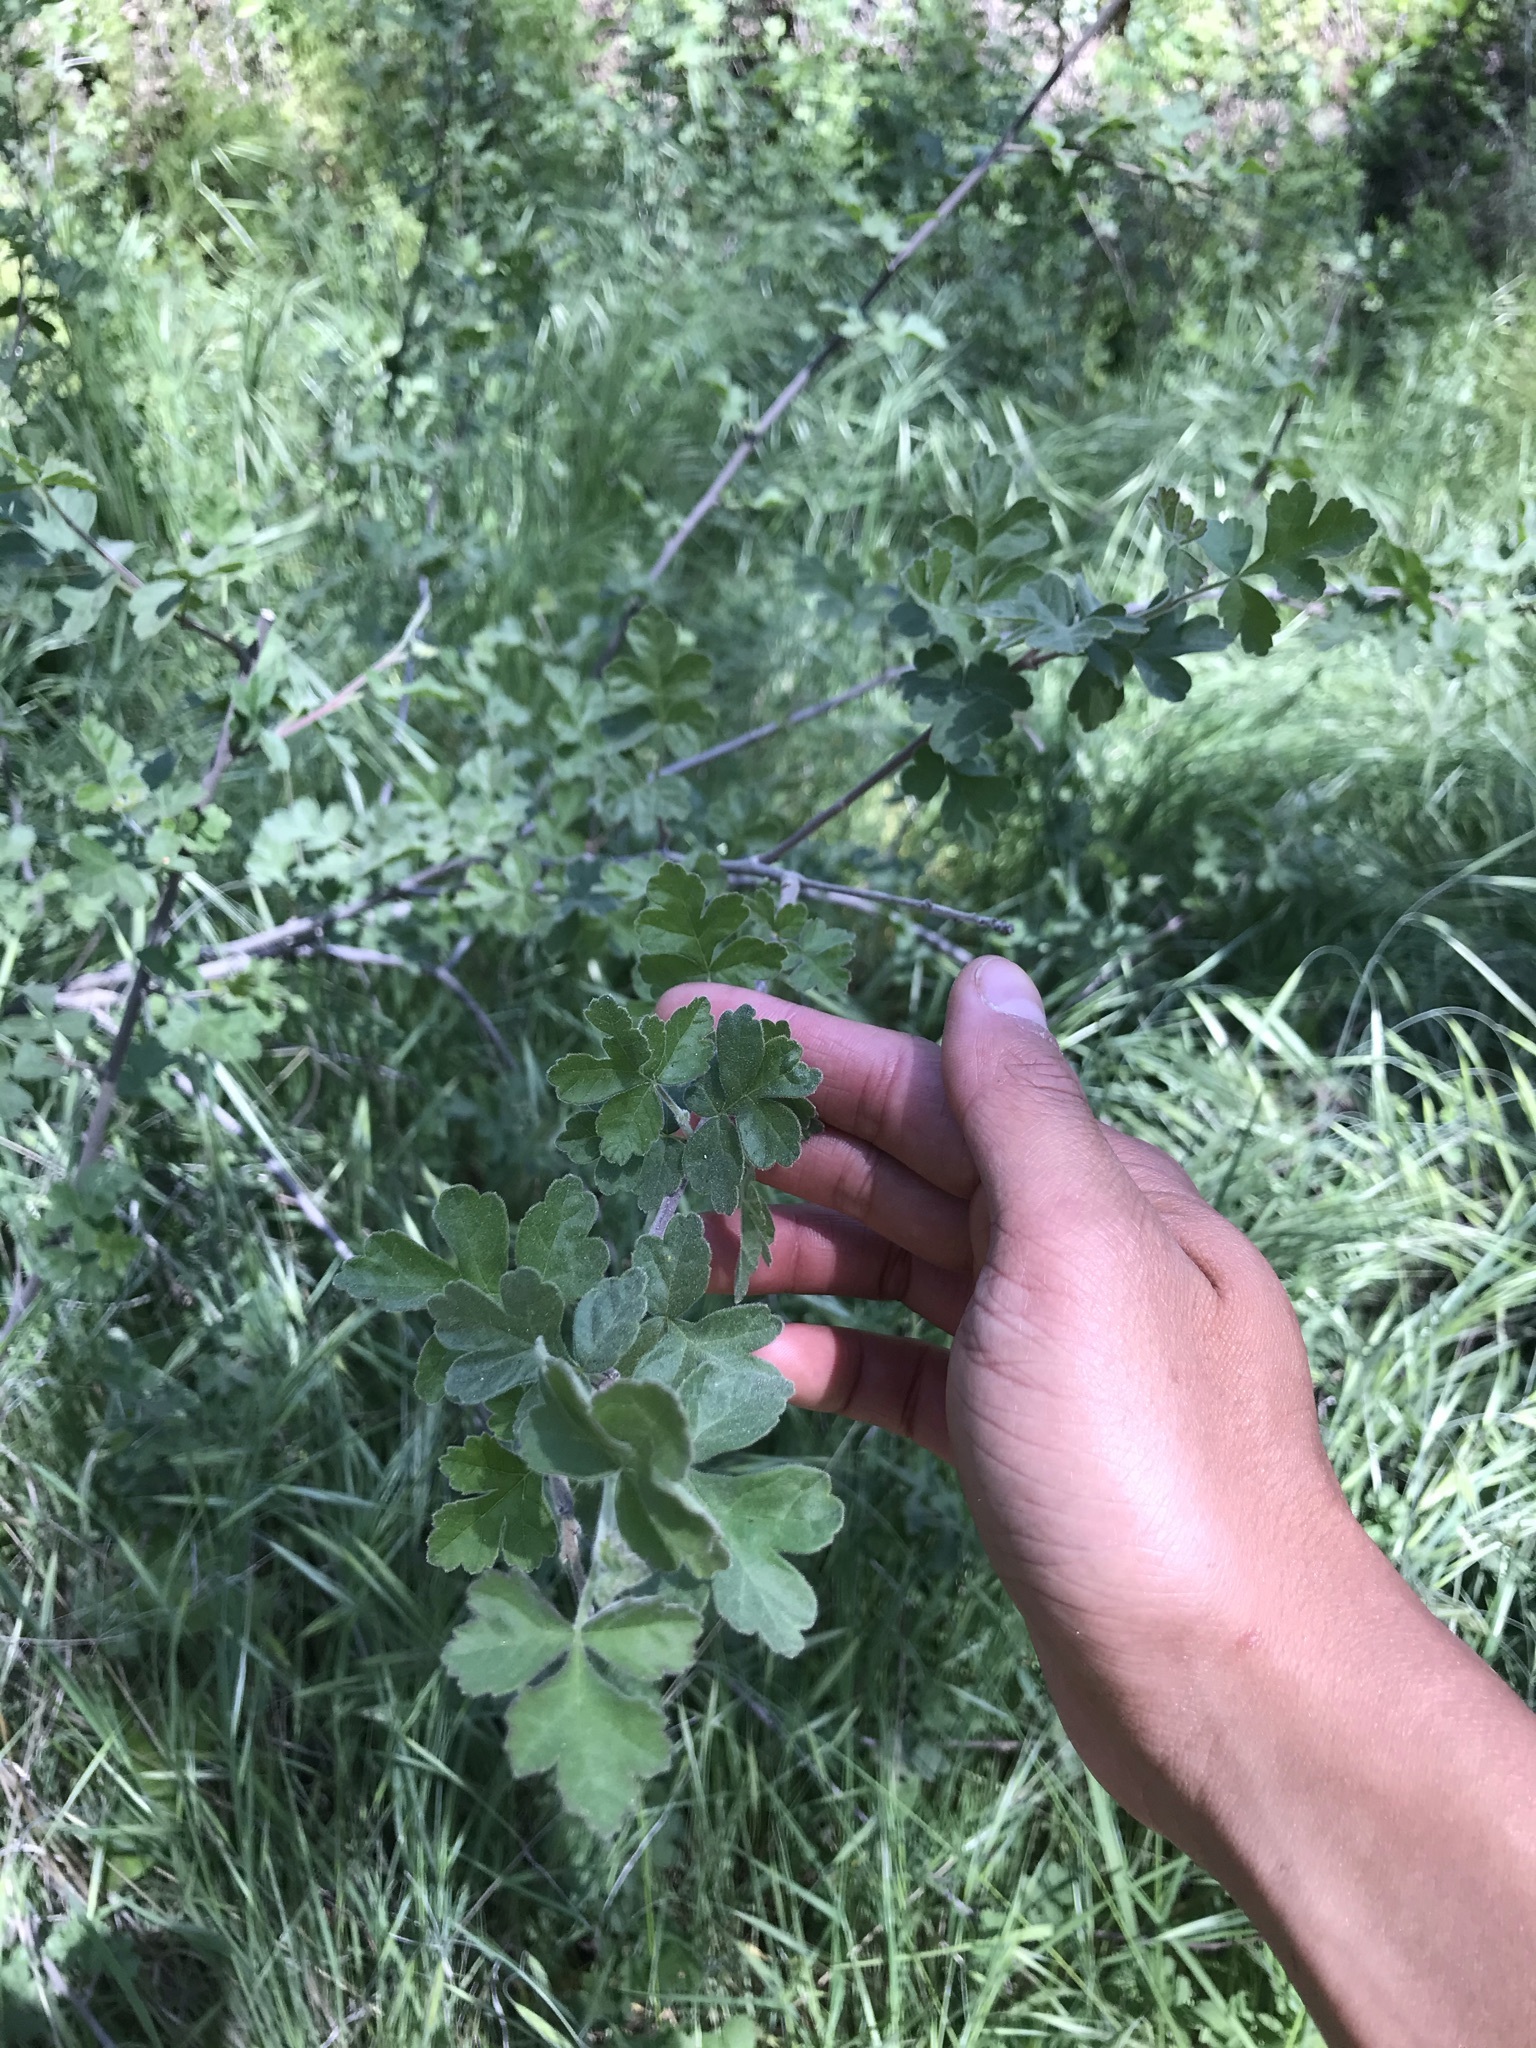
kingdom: Plantae
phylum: Tracheophyta
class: Magnoliopsida
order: Sapindales
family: Anacardiaceae
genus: Rhus
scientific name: Rhus aromatica
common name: Aromatic sumac
